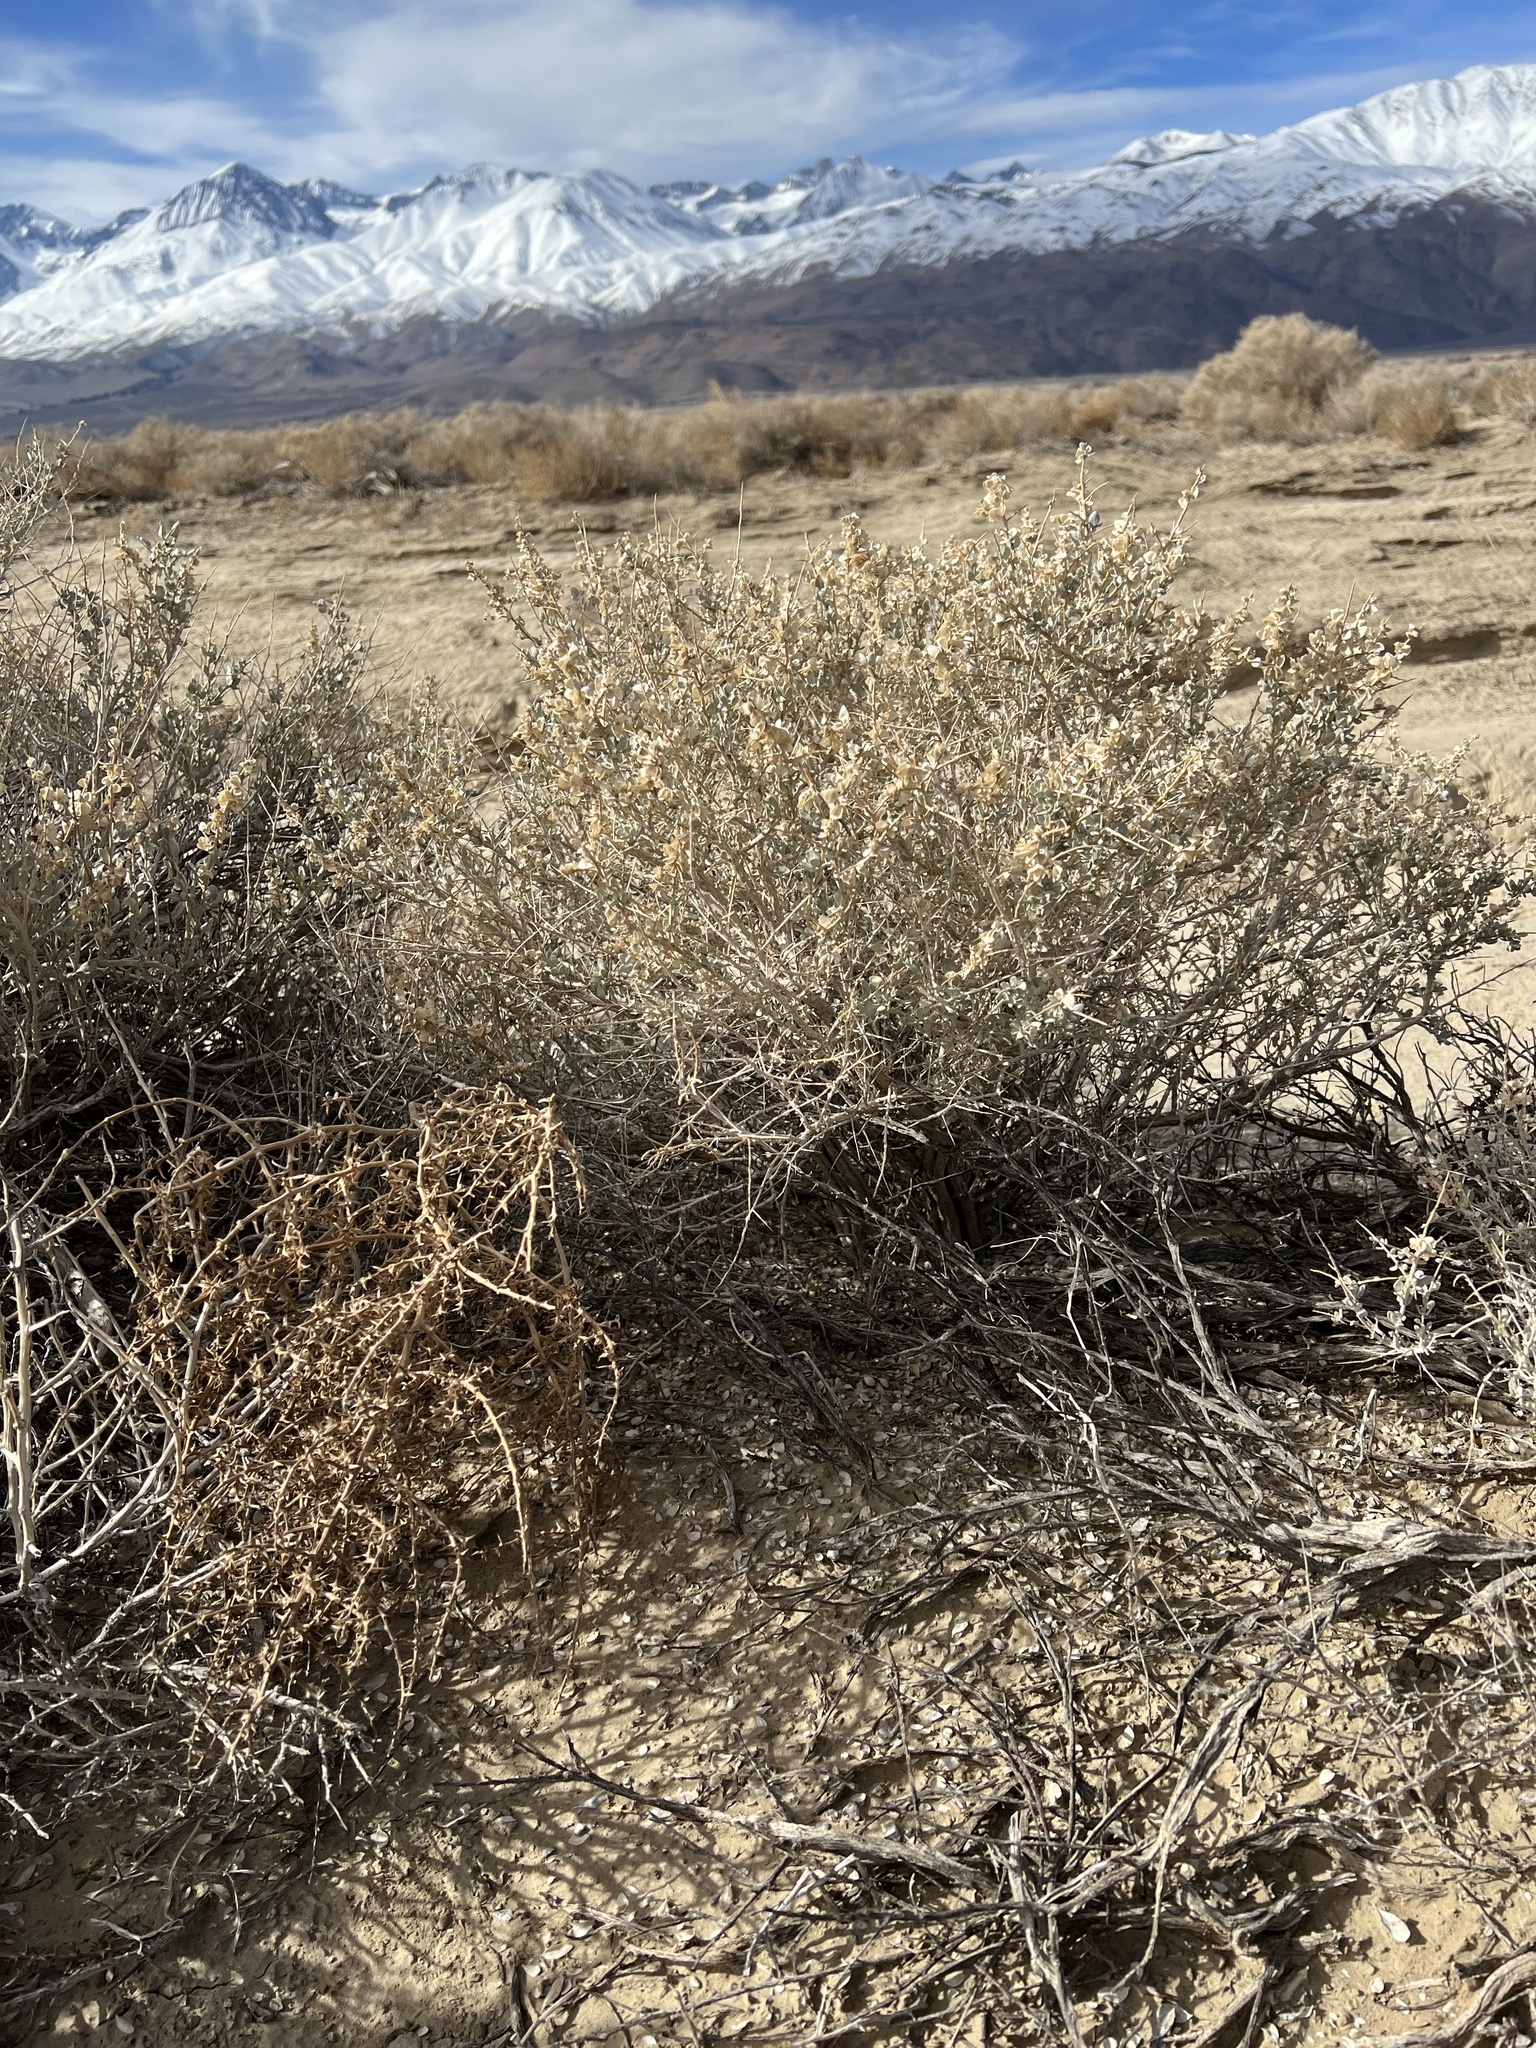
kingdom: Plantae
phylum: Tracheophyta
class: Magnoliopsida
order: Caryophyllales
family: Amaranthaceae
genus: Atriplex
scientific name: Atriplex confertifolia
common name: Shadscale
